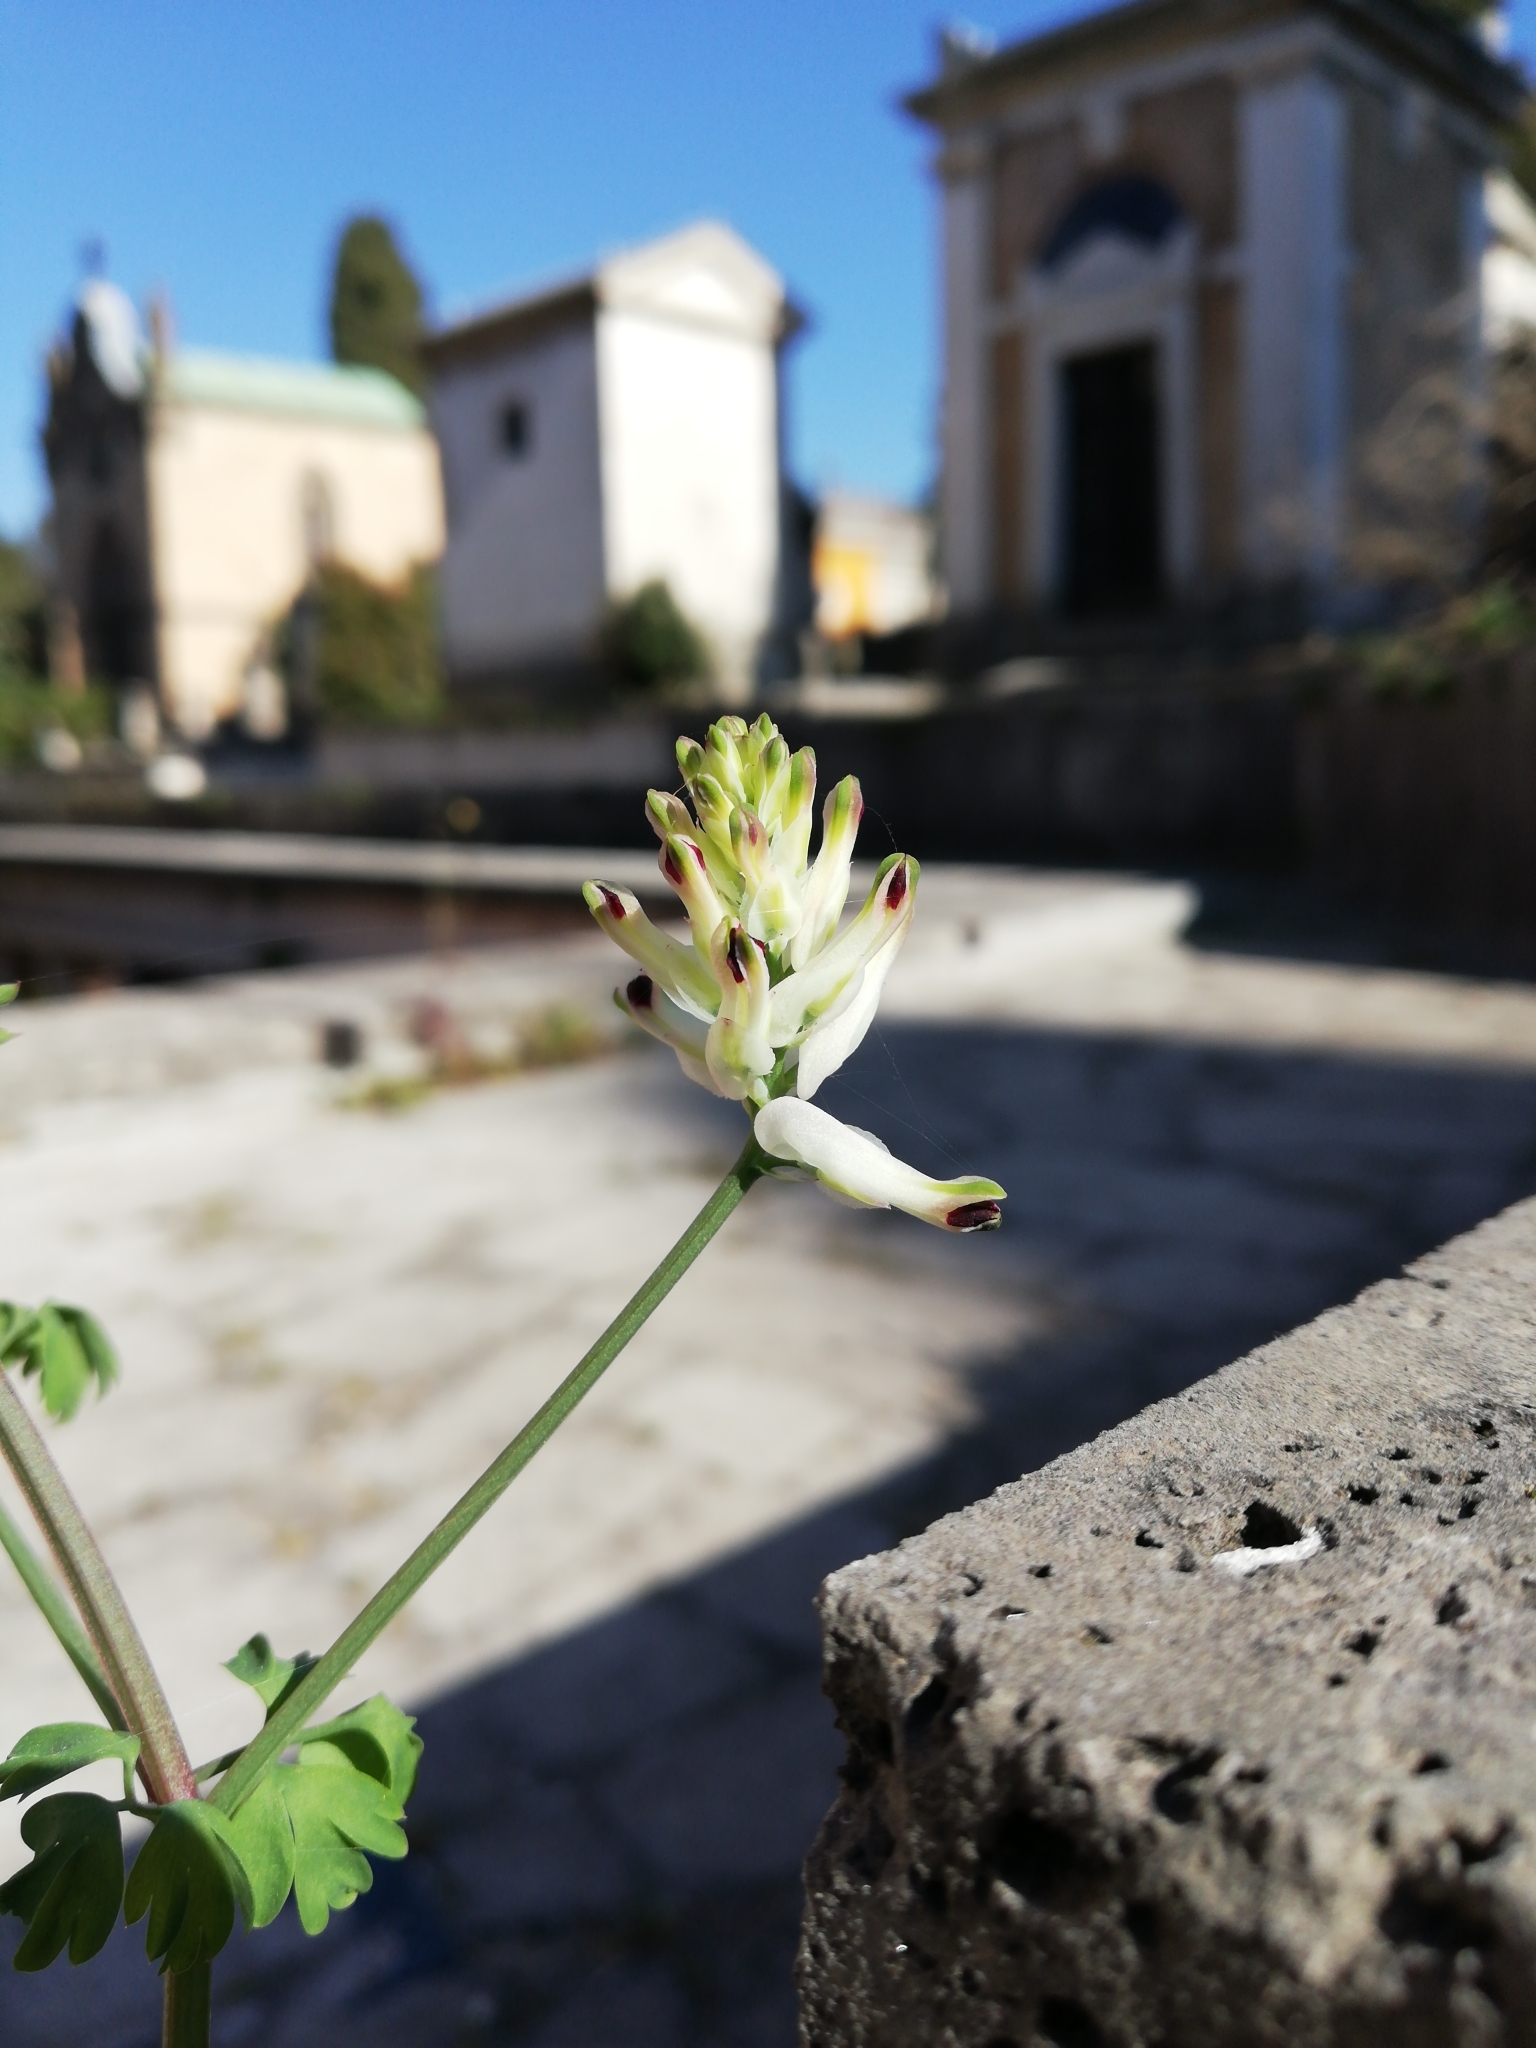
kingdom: Plantae
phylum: Tracheophyta
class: Magnoliopsida
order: Ranunculales
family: Papaveraceae
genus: Fumaria
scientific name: Fumaria capreolata
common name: White ramping-fumitory
